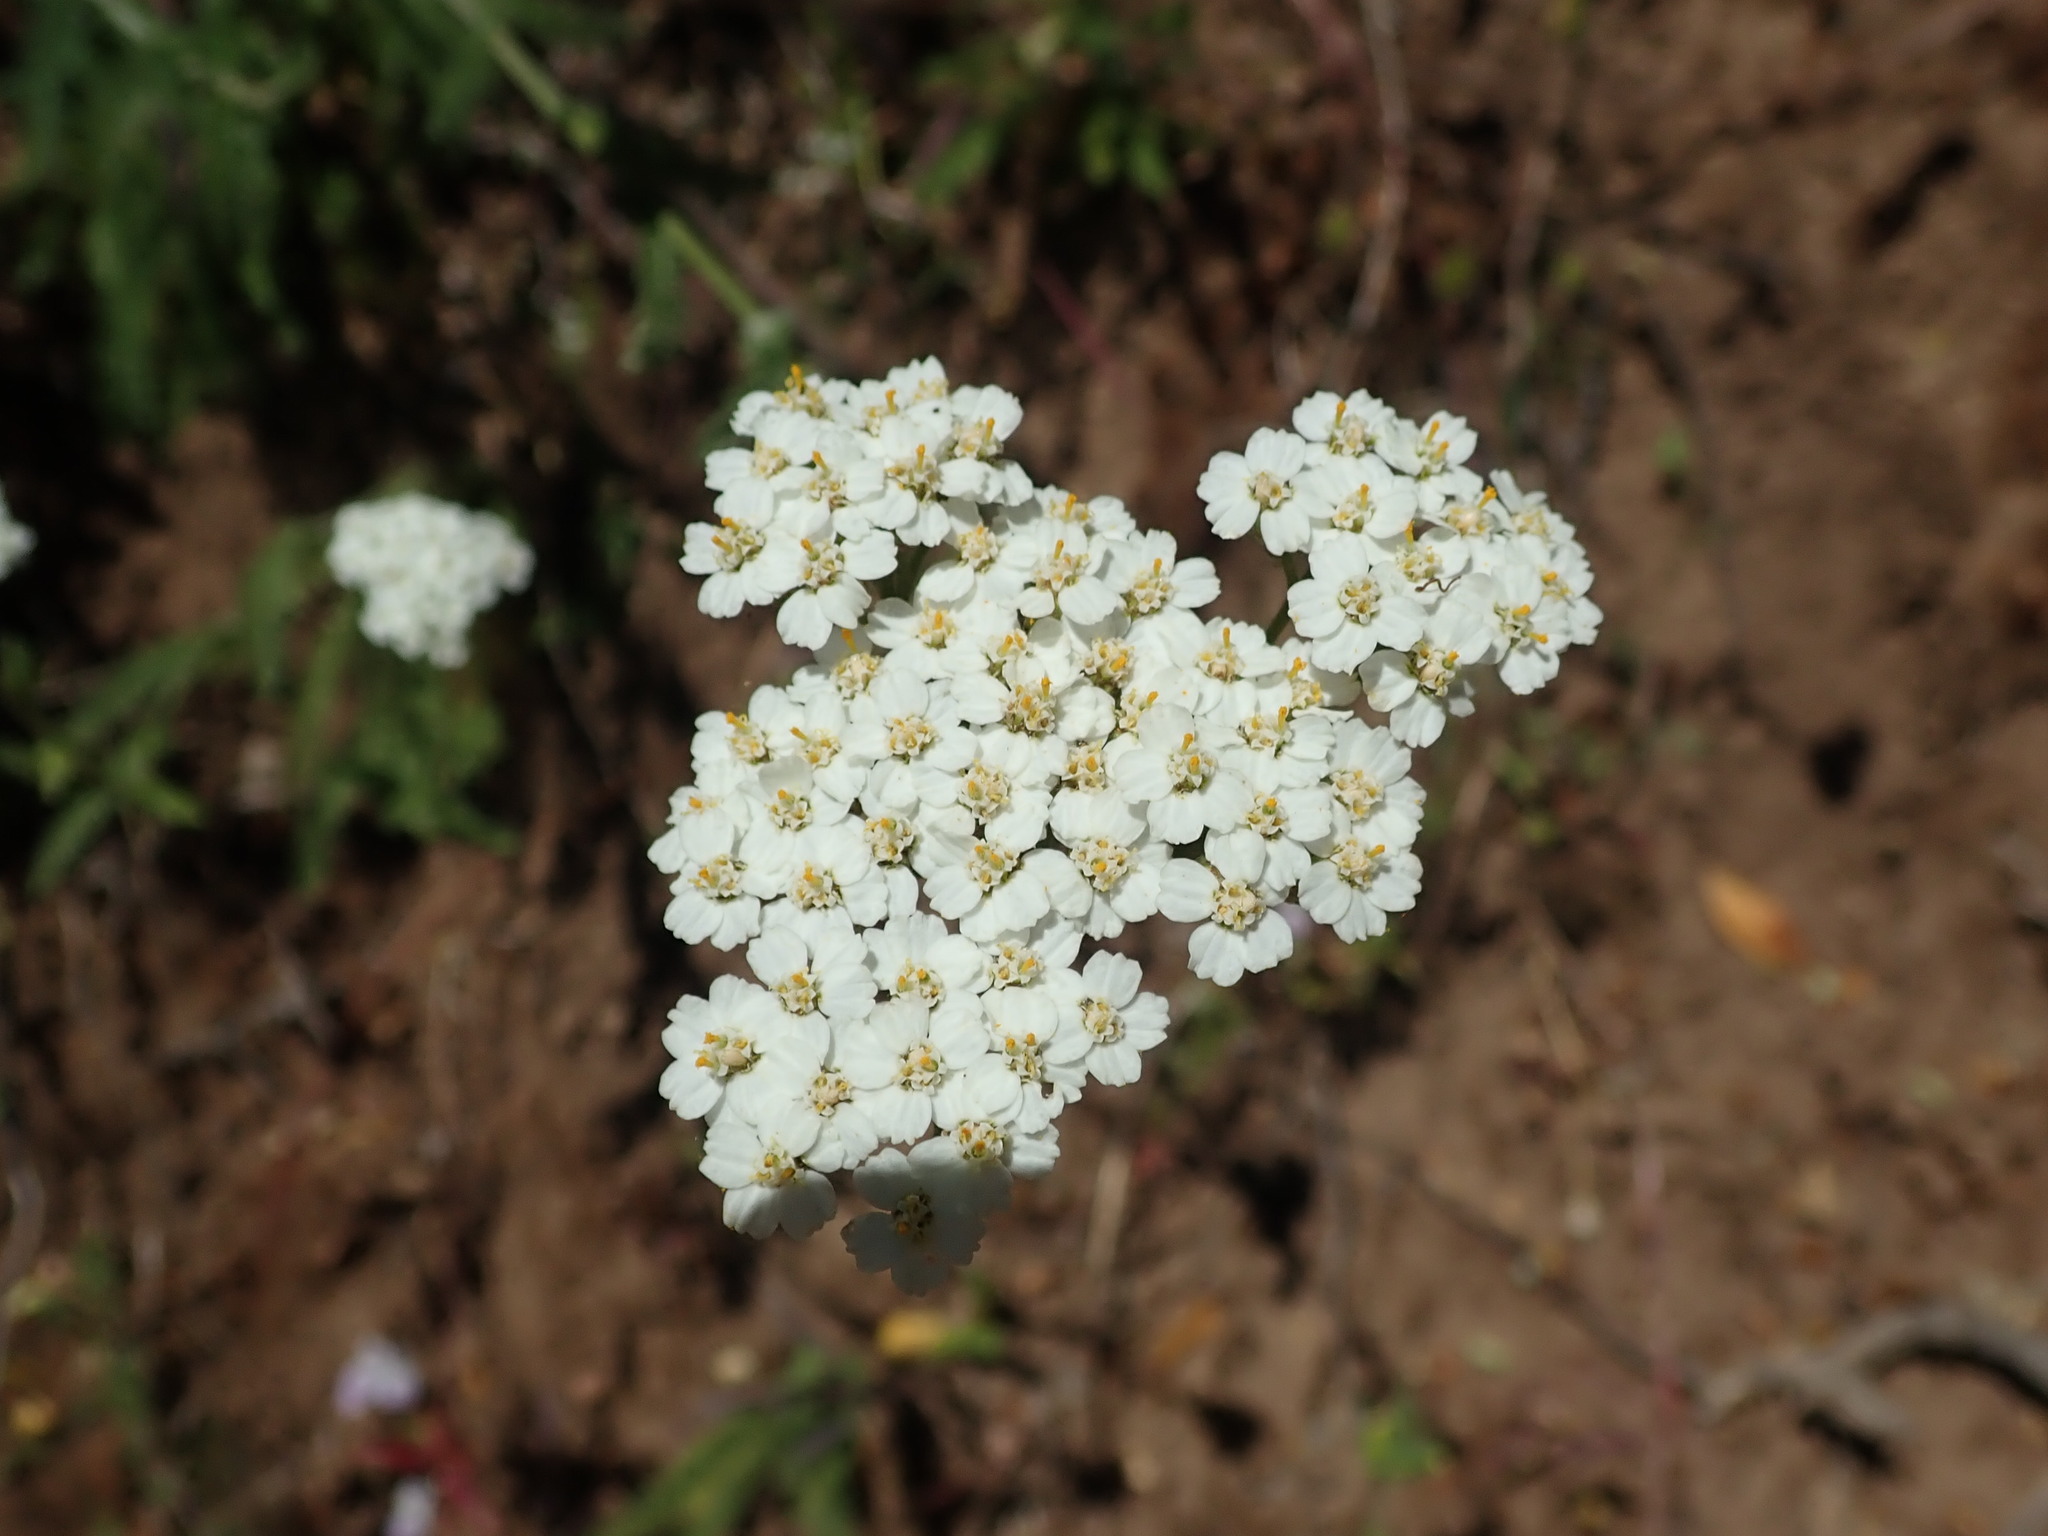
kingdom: Plantae
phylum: Tracheophyta
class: Magnoliopsida
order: Asterales
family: Asteraceae
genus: Achillea
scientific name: Achillea millefolium
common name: Yarrow
